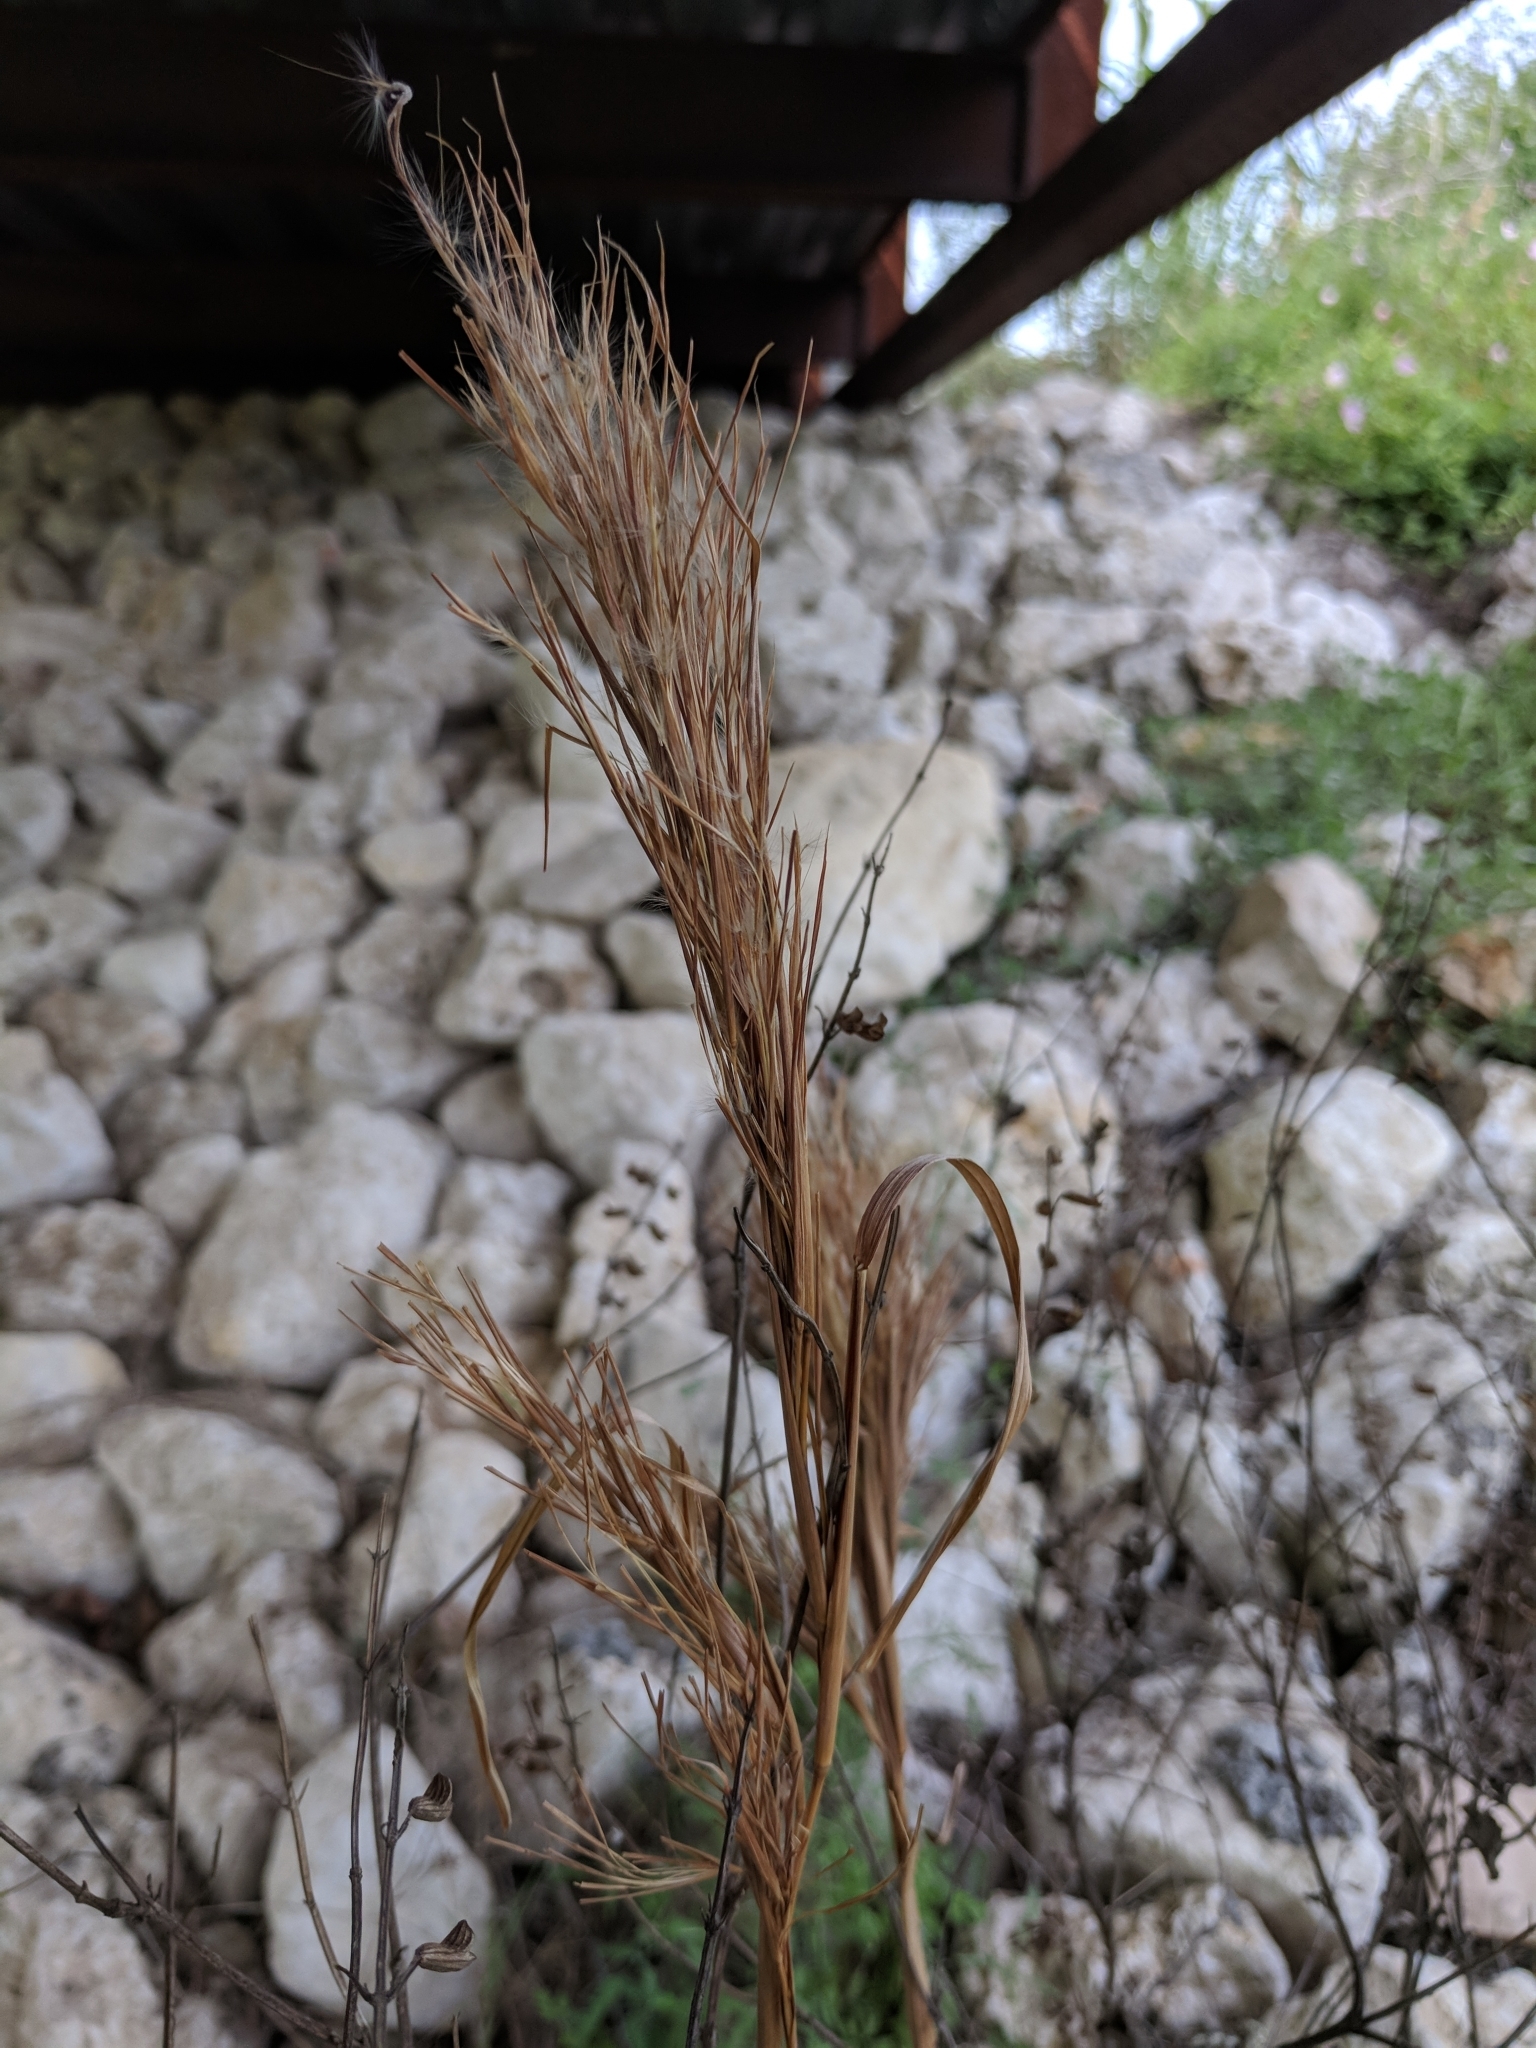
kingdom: Plantae
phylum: Tracheophyta
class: Liliopsida
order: Poales
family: Poaceae
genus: Andropogon
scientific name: Andropogon tenuispatheus
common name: Bushy bluestem
